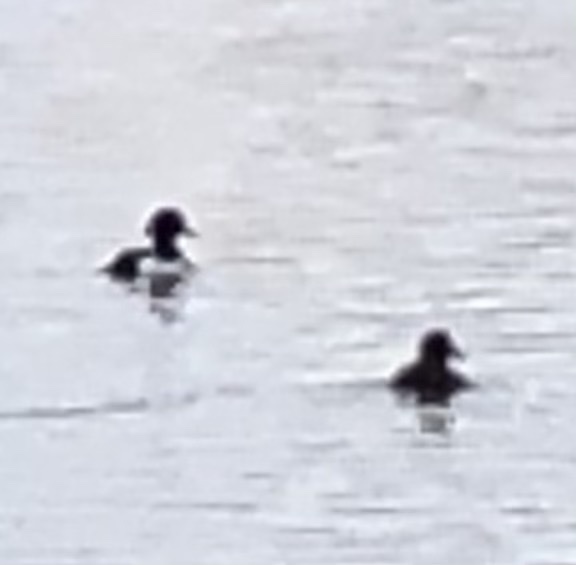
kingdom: Animalia
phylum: Chordata
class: Aves
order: Anseriformes
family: Anatidae
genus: Aythya
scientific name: Aythya fuligula
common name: Tufted duck
